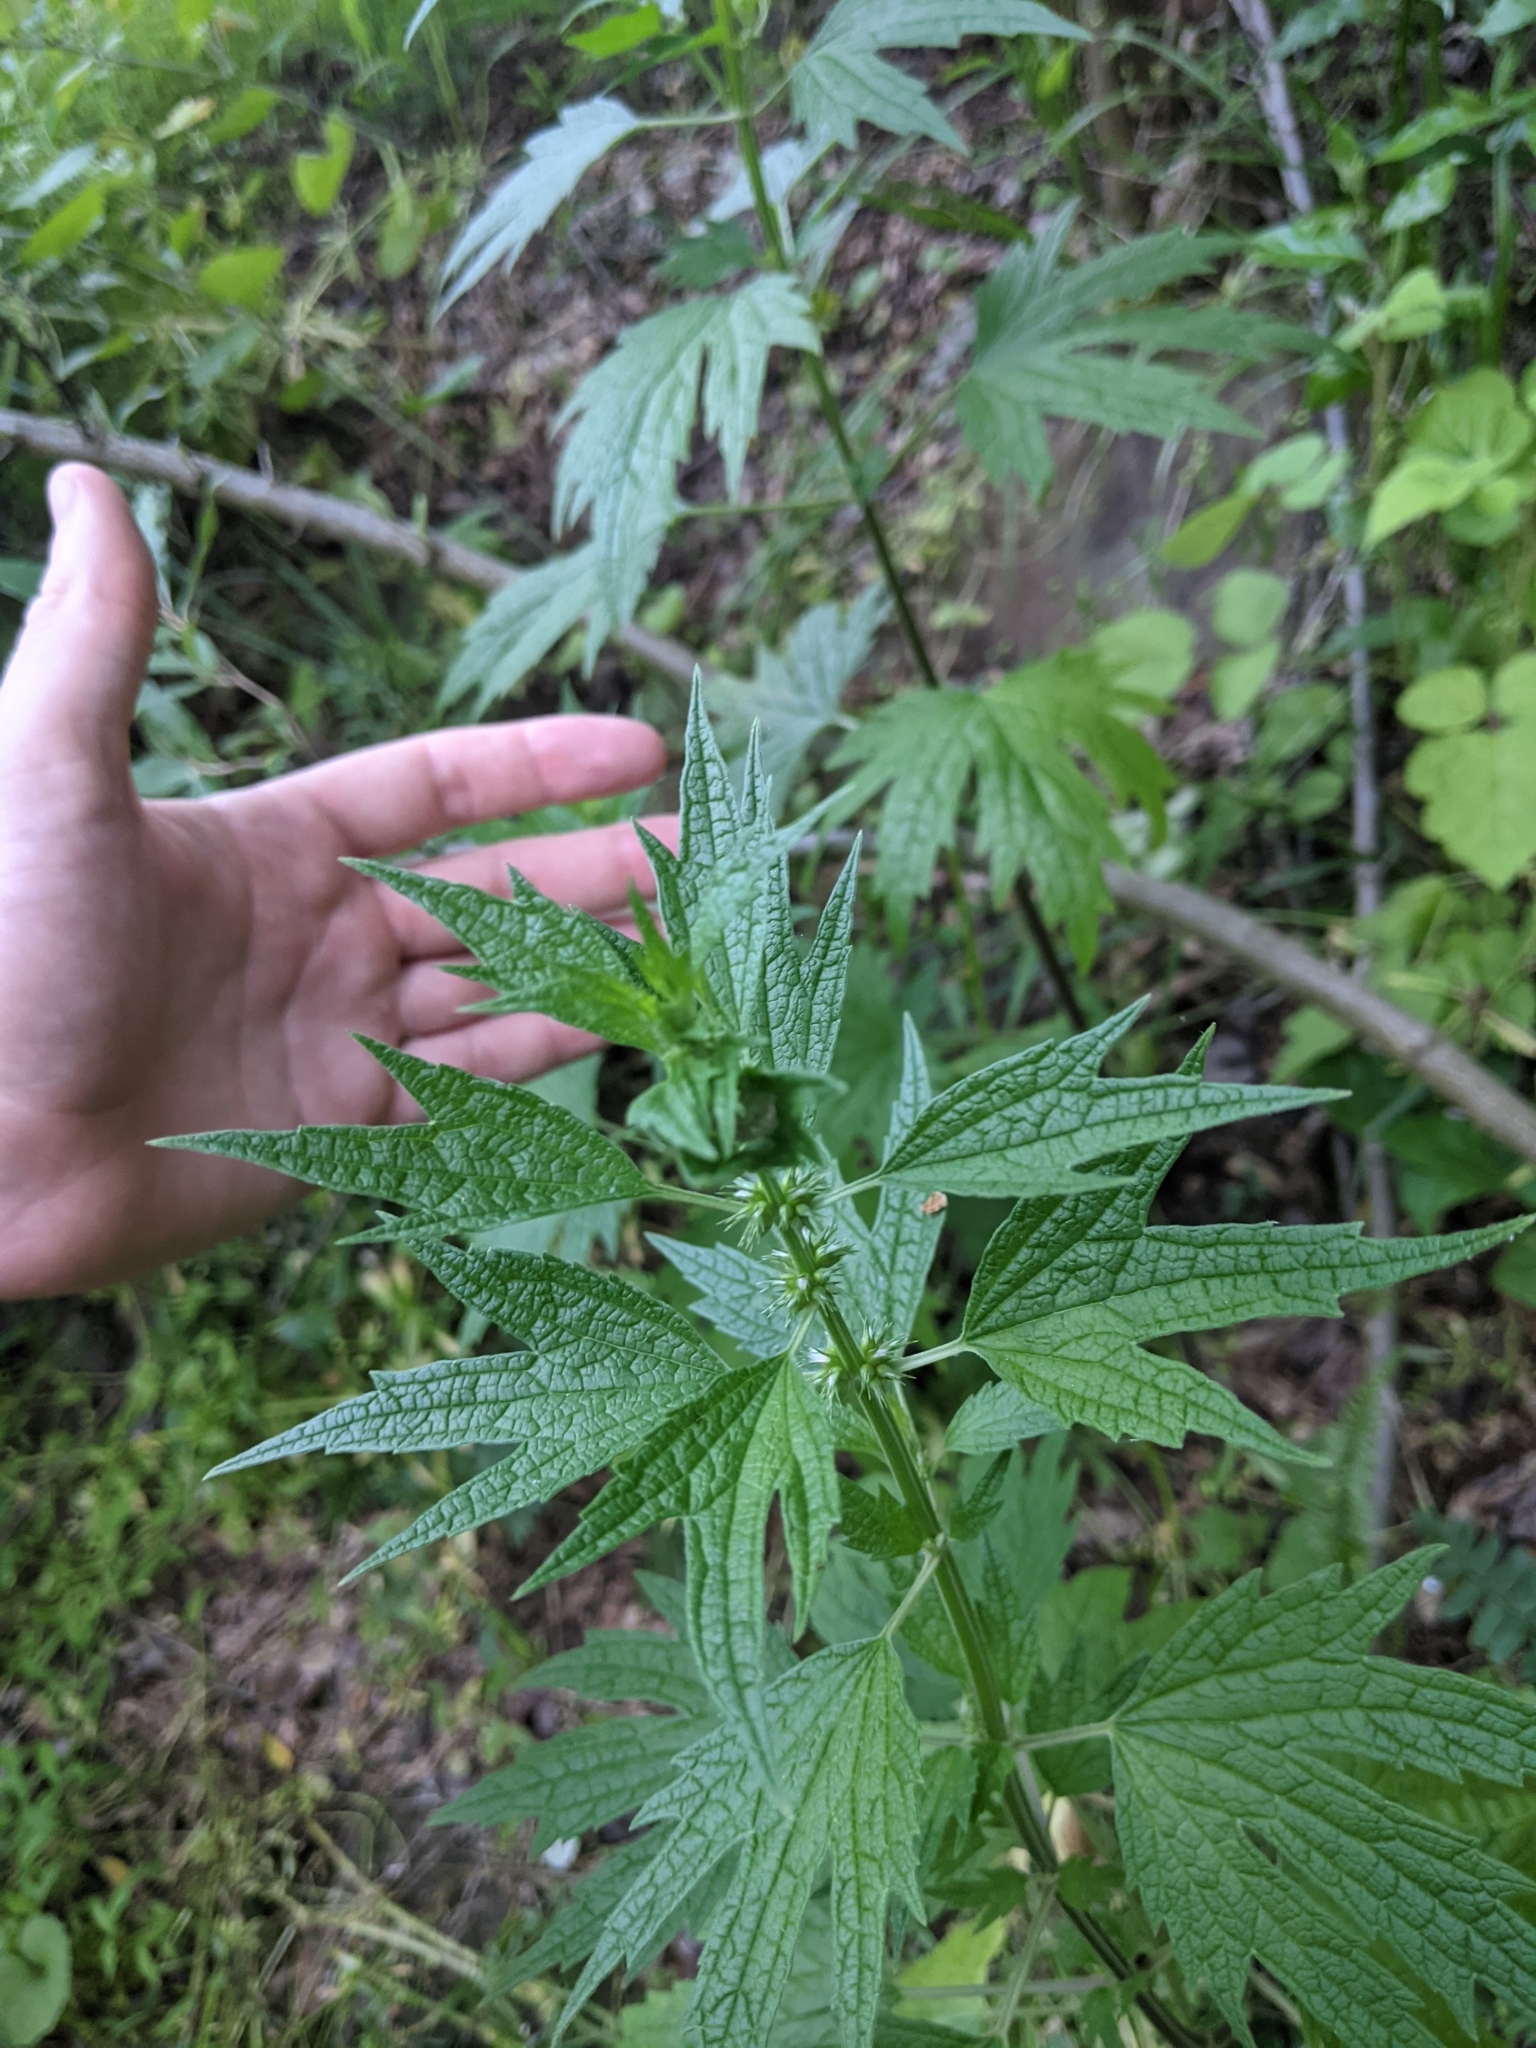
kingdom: Plantae
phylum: Tracheophyta
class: Magnoliopsida
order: Lamiales
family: Lamiaceae
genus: Leonurus
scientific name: Leonurus cardiaca
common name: Motherwort
